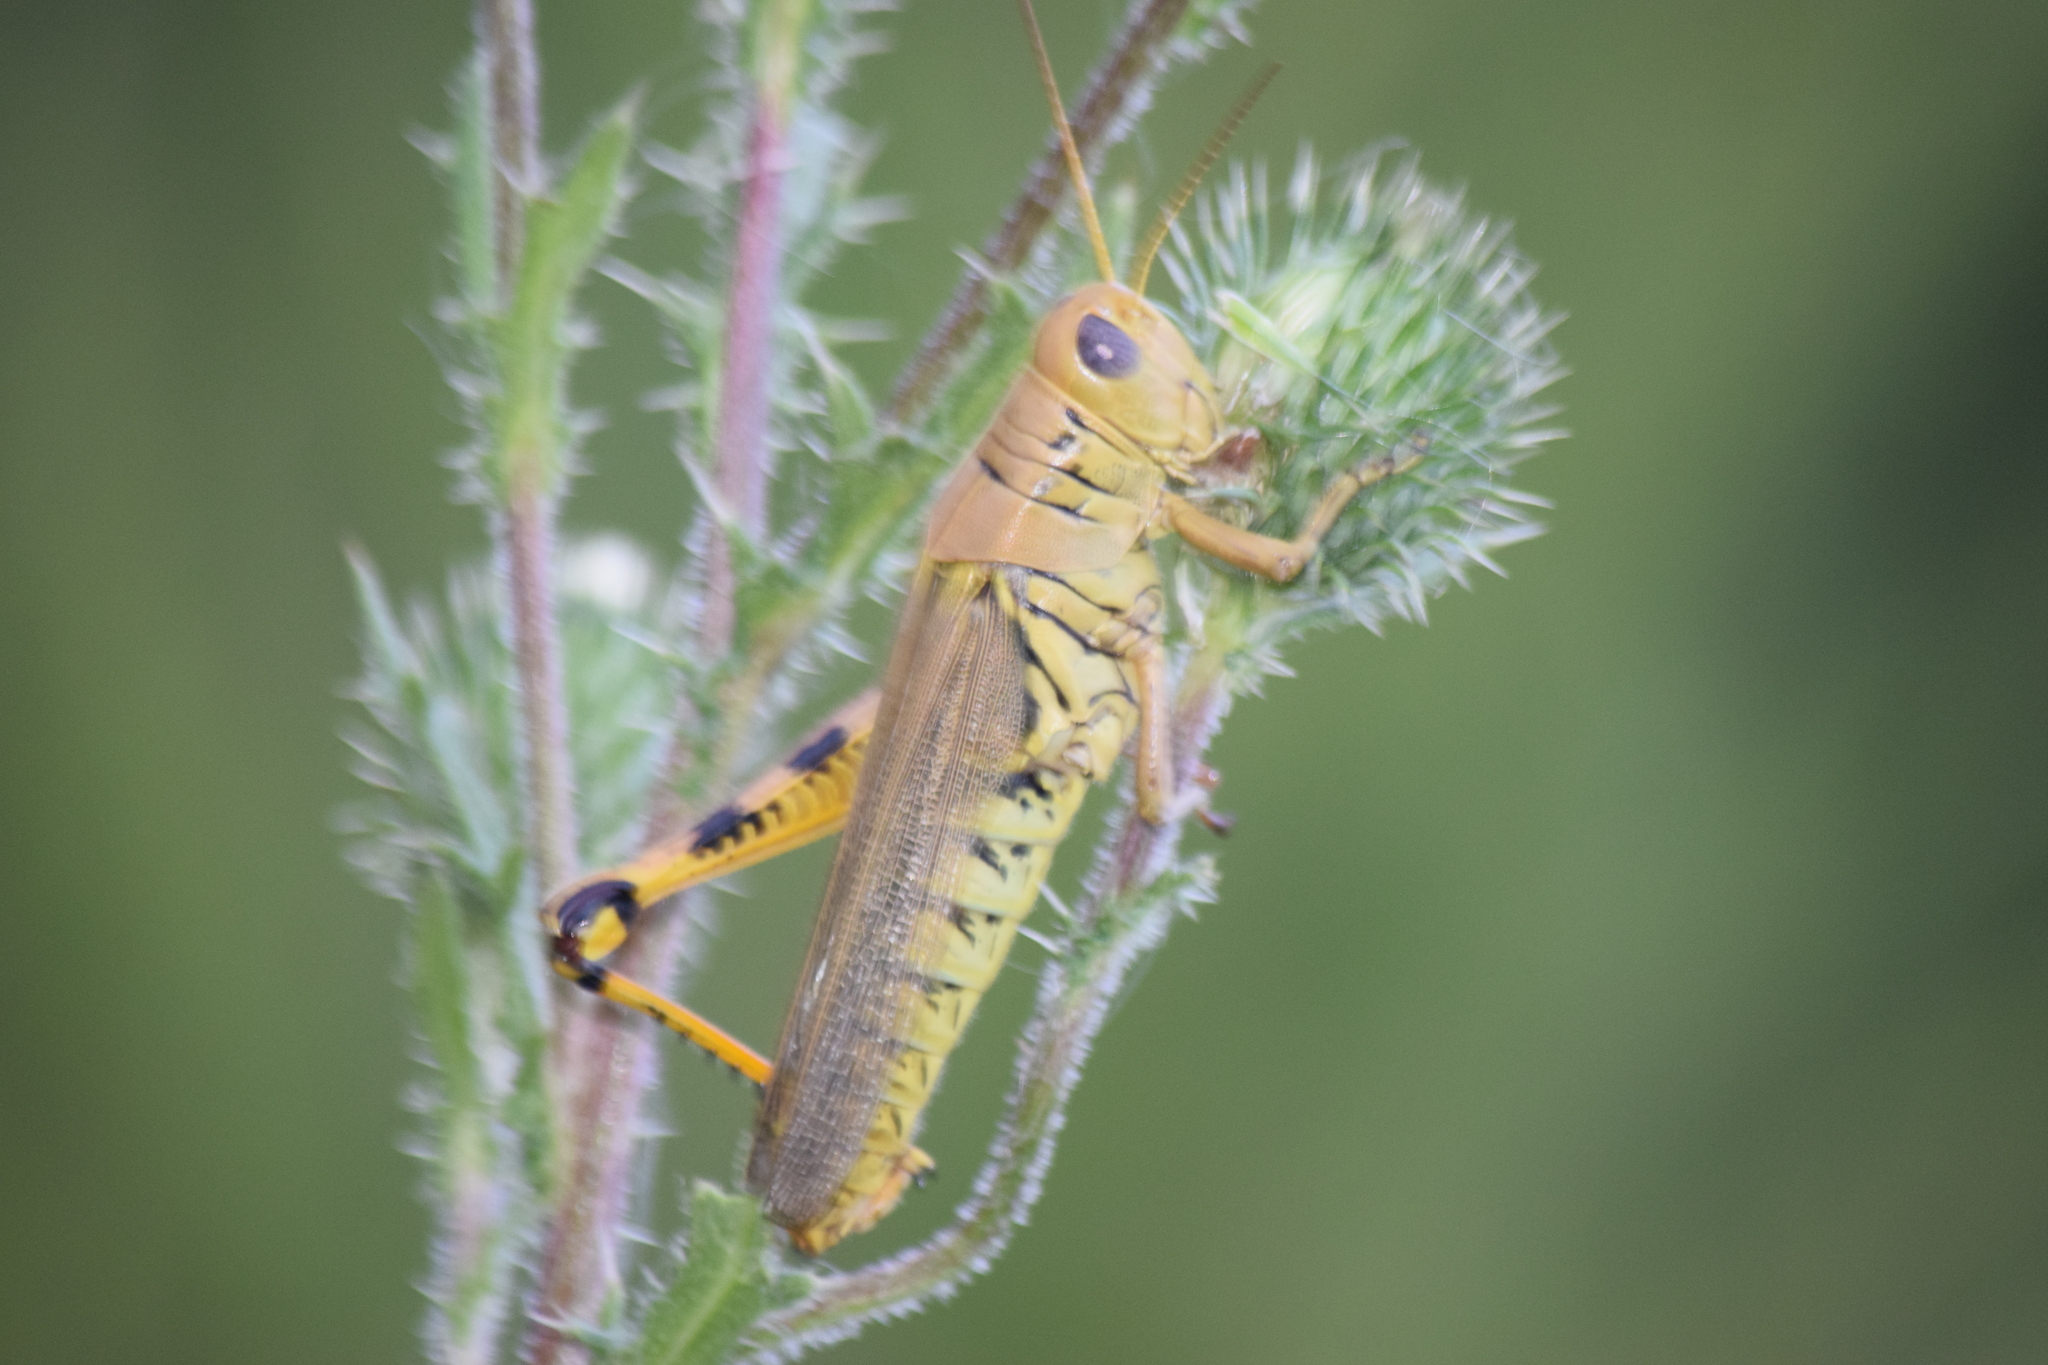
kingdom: Animalia
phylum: Arthropoda
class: Insecta
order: Orthoptera
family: Acrididae
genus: Melanoplus
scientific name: Melanoplus differentialis
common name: Differential grasshopper
